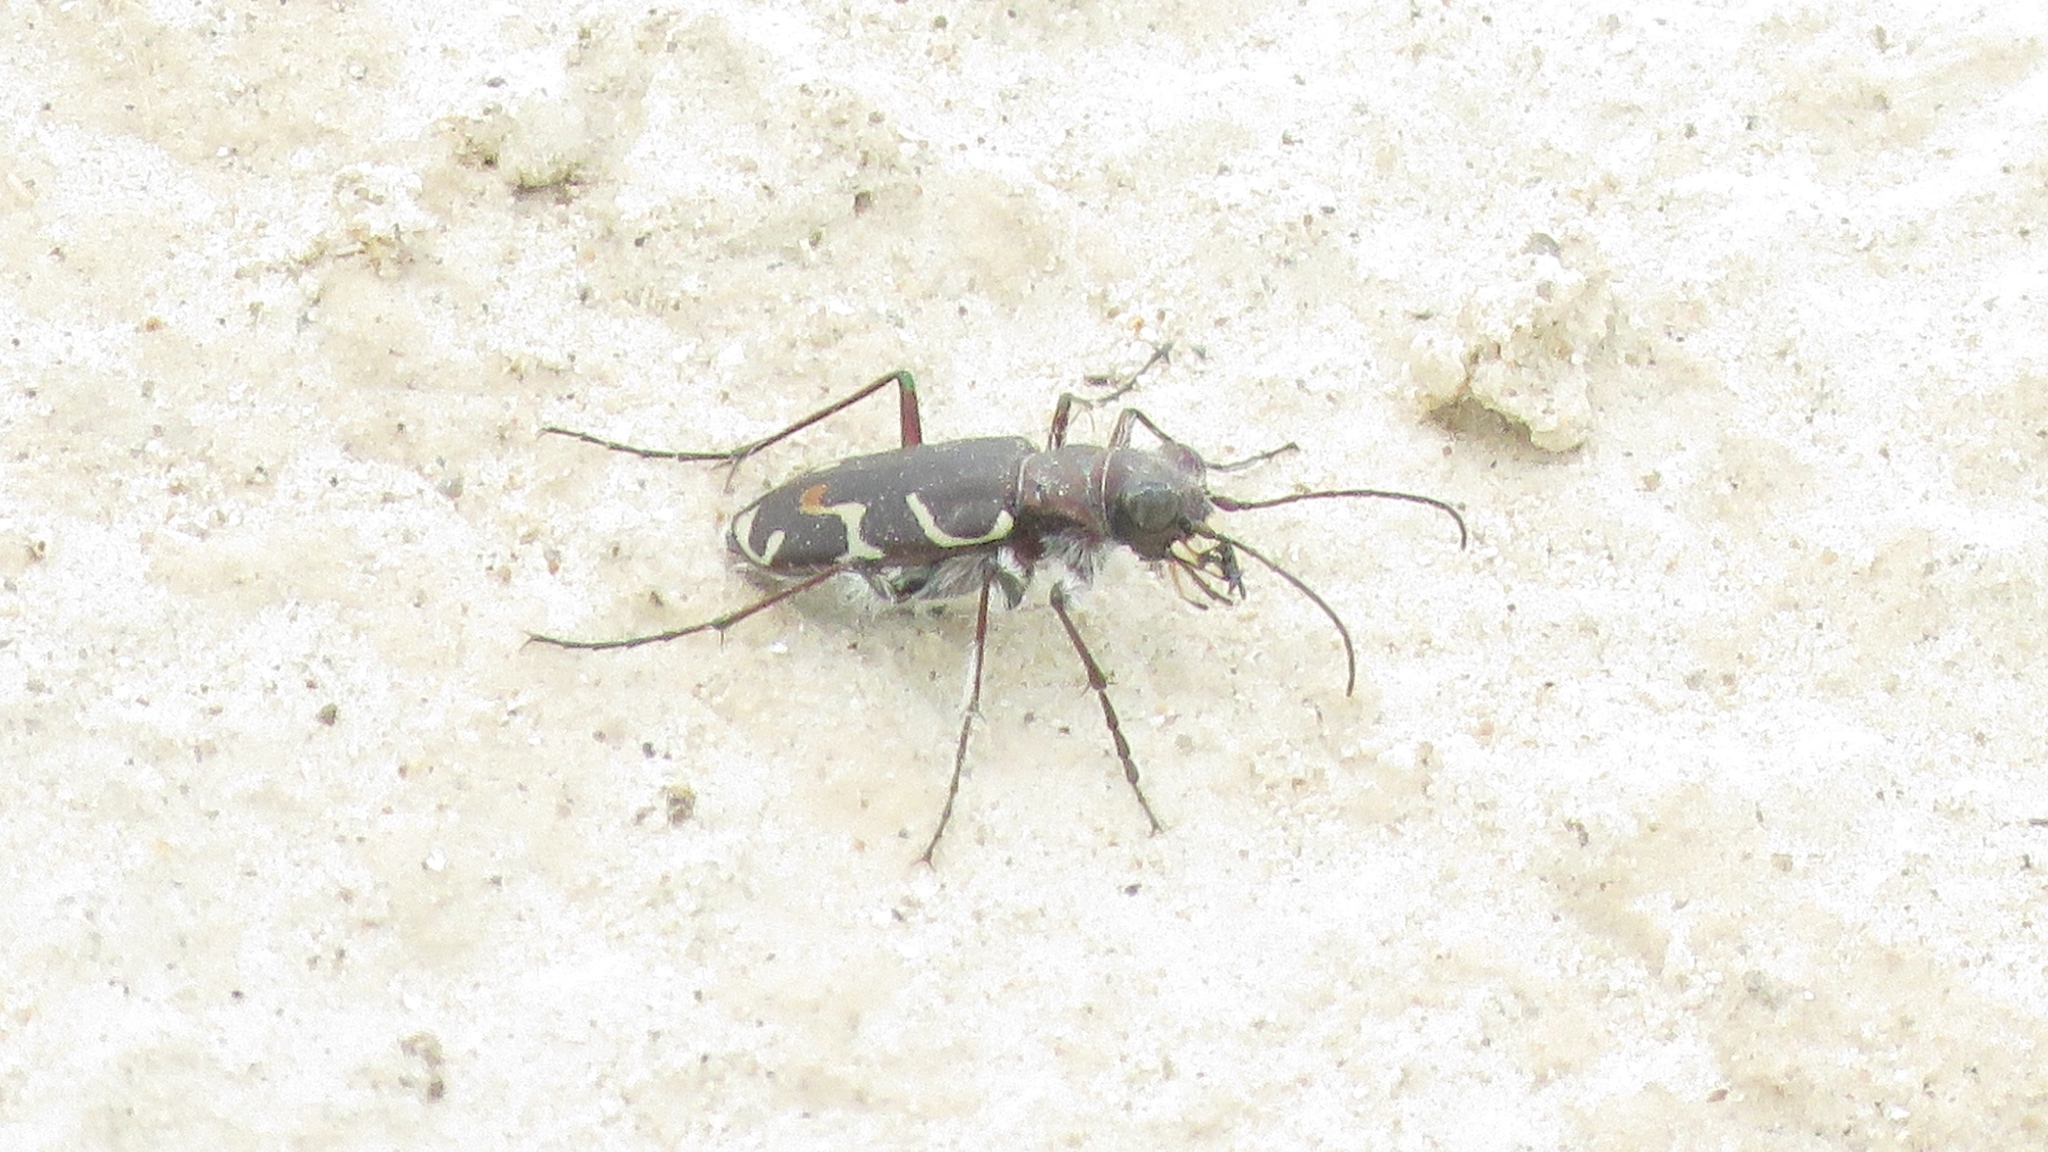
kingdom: Animalia
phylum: Arthropoda
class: Insecta
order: Coleoptera
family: Carabidae
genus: Cicindela
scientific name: Cicindela tranquebarica
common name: Oblique-lined tiger beetle
